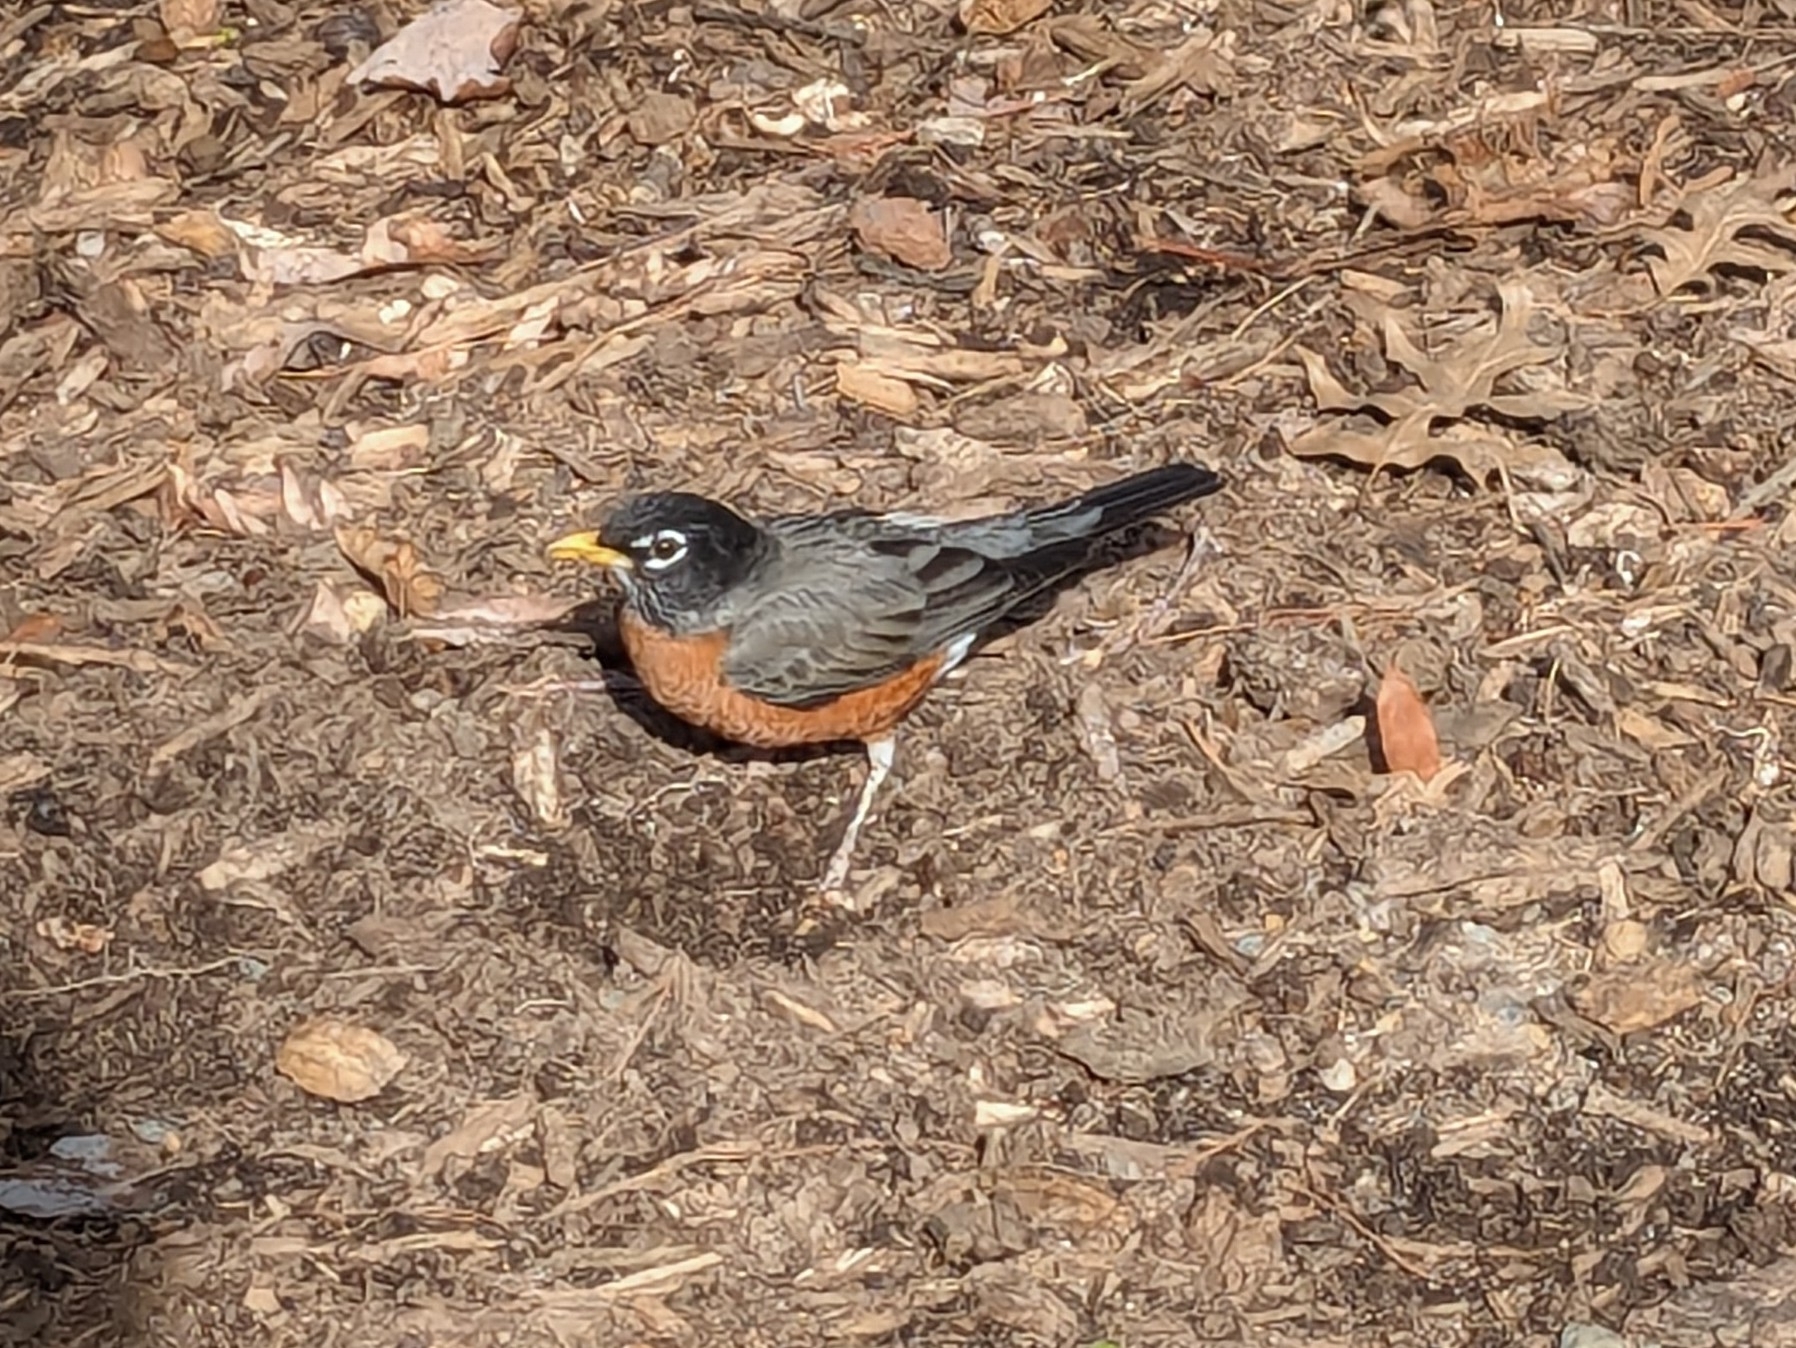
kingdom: Animalia
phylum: Chordata
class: Aves
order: Passeriformes
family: Turdidae
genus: Turdus
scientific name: Turdus migratorius
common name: American robin
